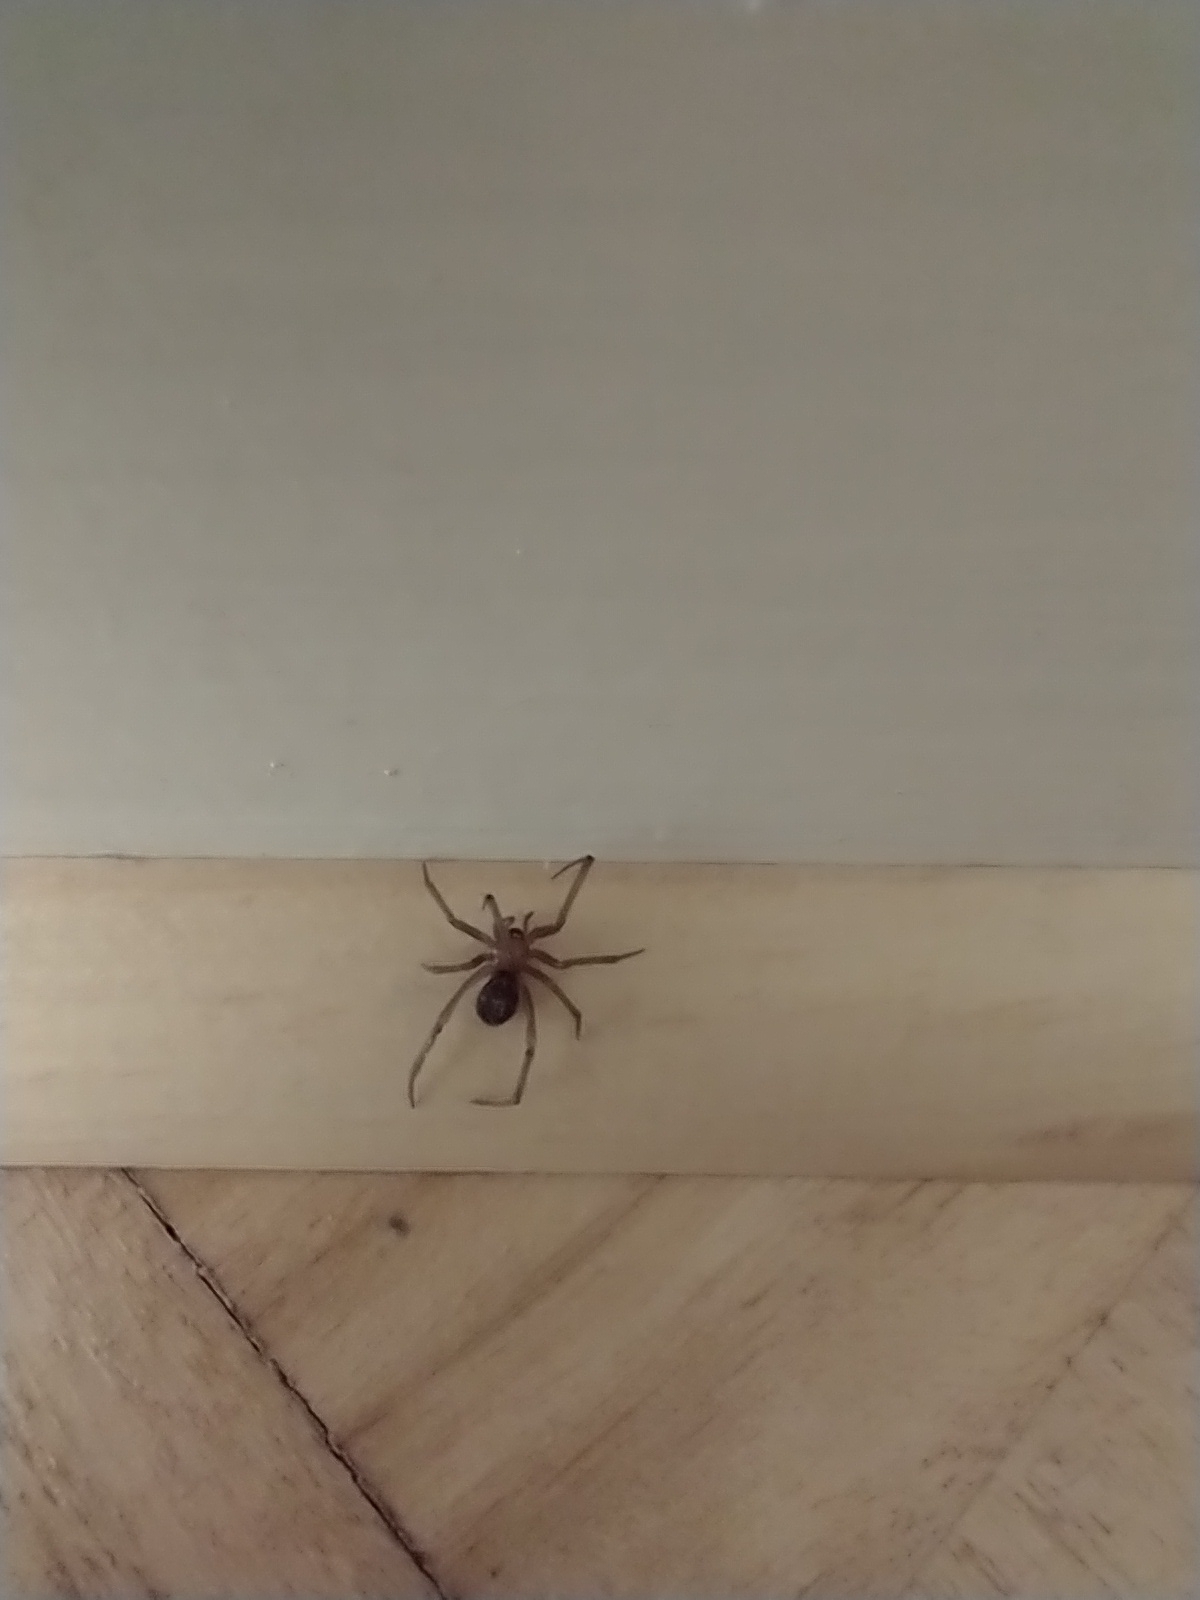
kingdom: Animalia
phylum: Arthropoda
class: Arachnida
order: Araneae
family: Theridiidae
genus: Steatoda
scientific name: Steatoda grossa
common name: False black widow
